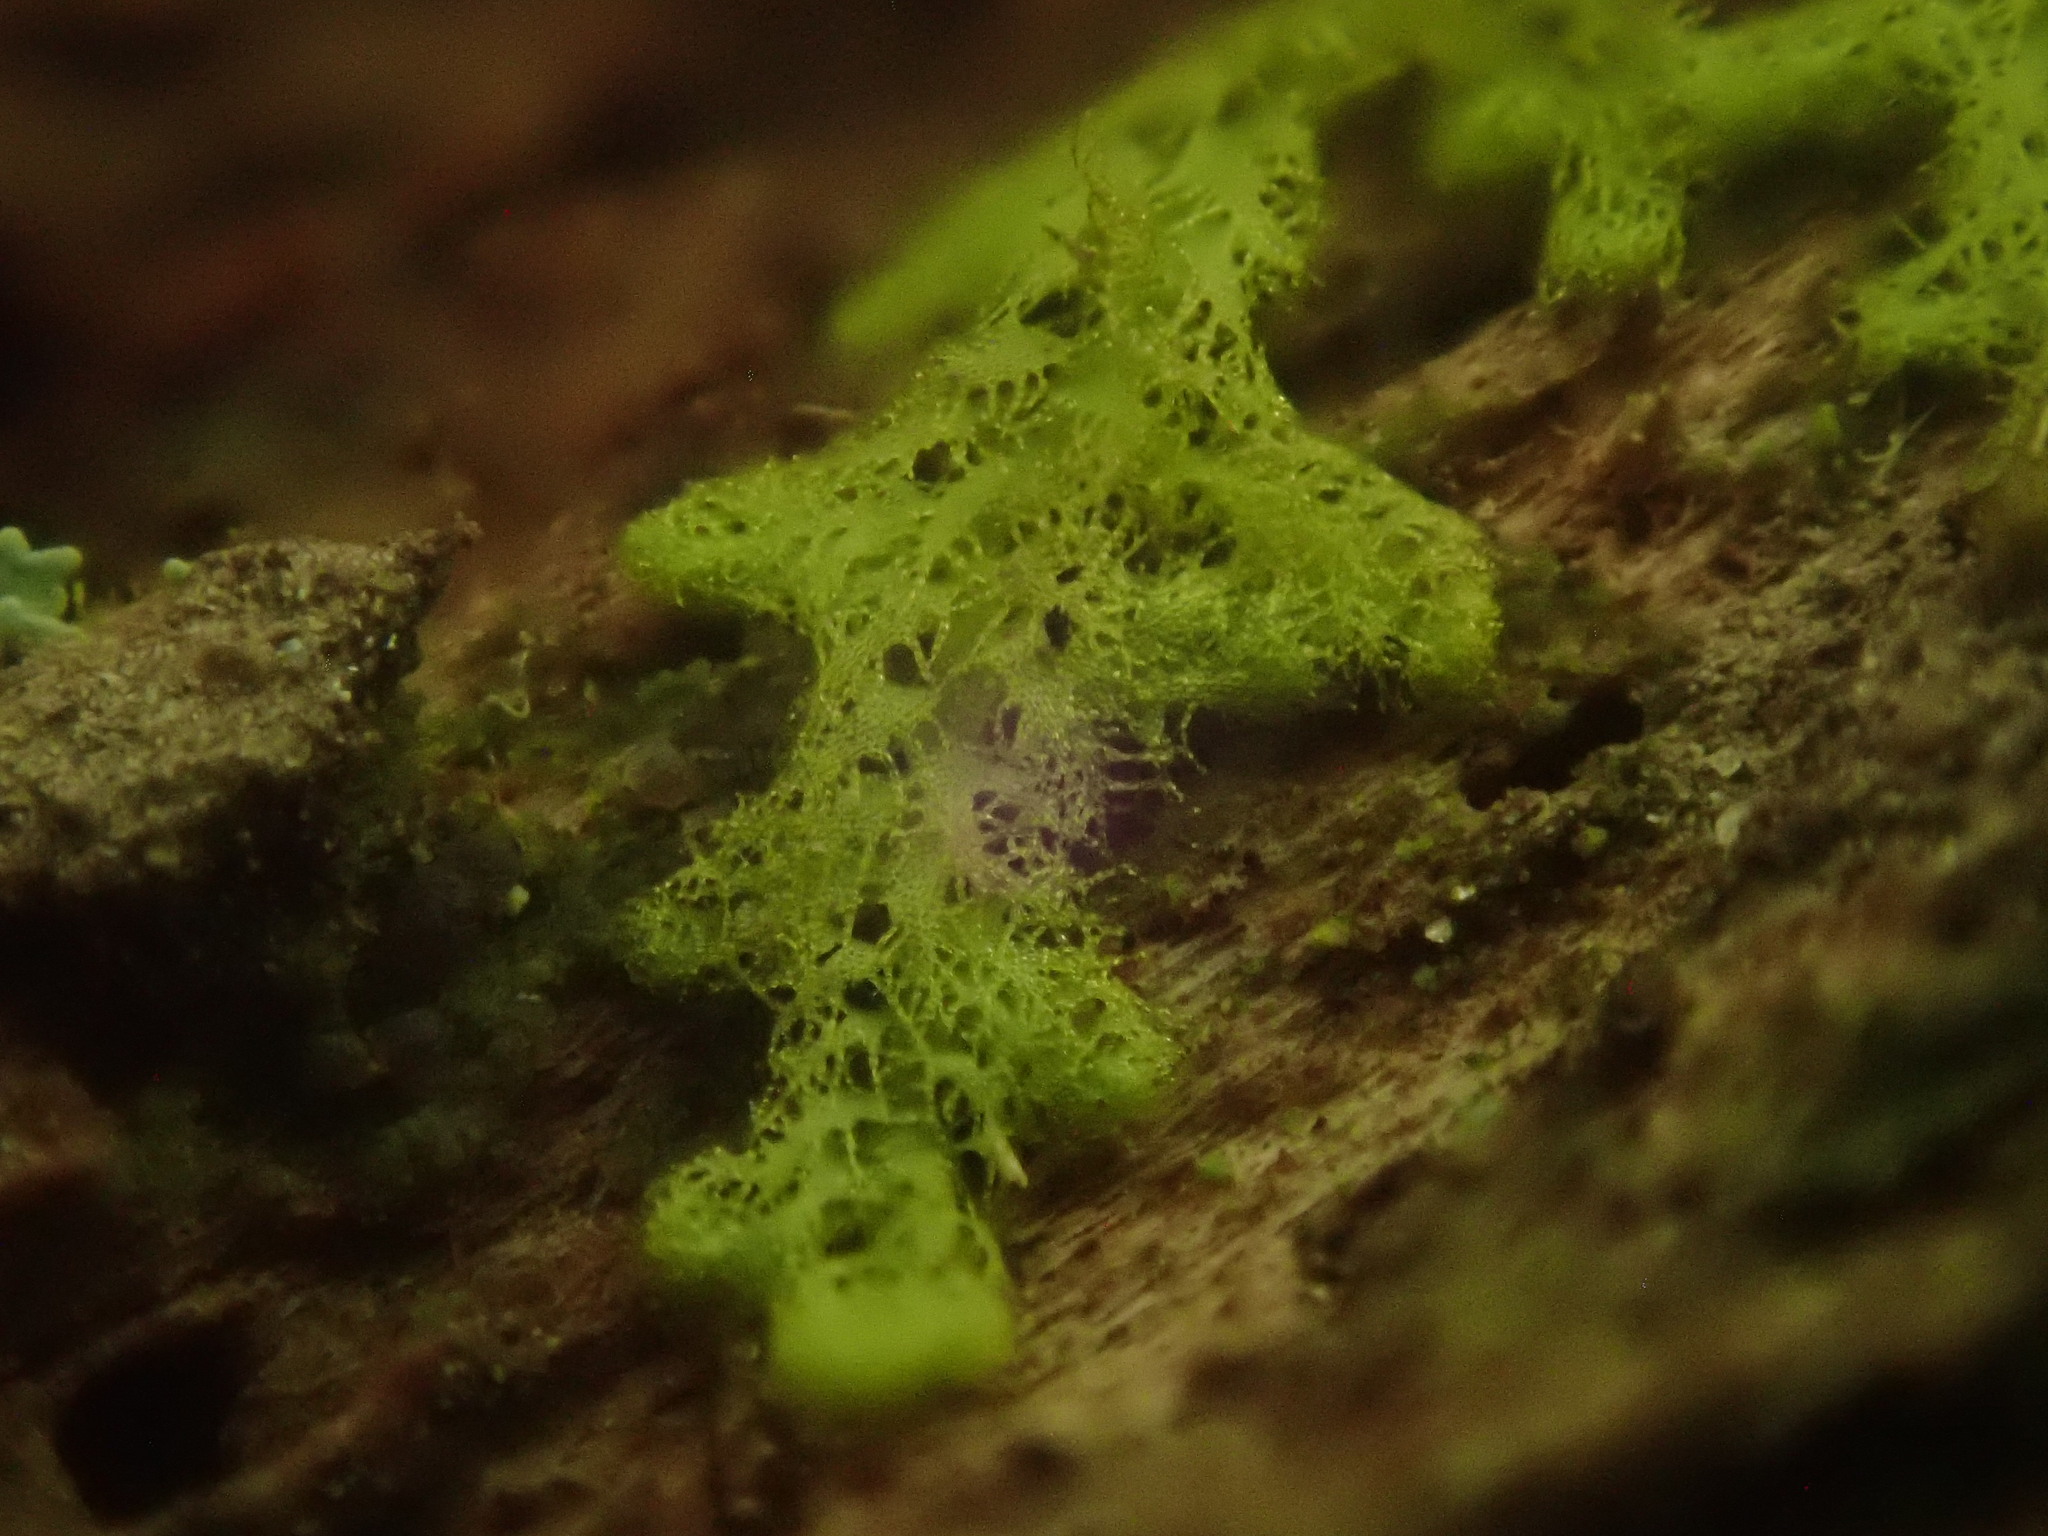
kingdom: Plantae
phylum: Marchantiophyta
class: Jungermanniopsida
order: Ptilidiales
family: Ptilidiaceae
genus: Ptilidium
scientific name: Ptilidium pulcherrimum
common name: Tree fringewort
